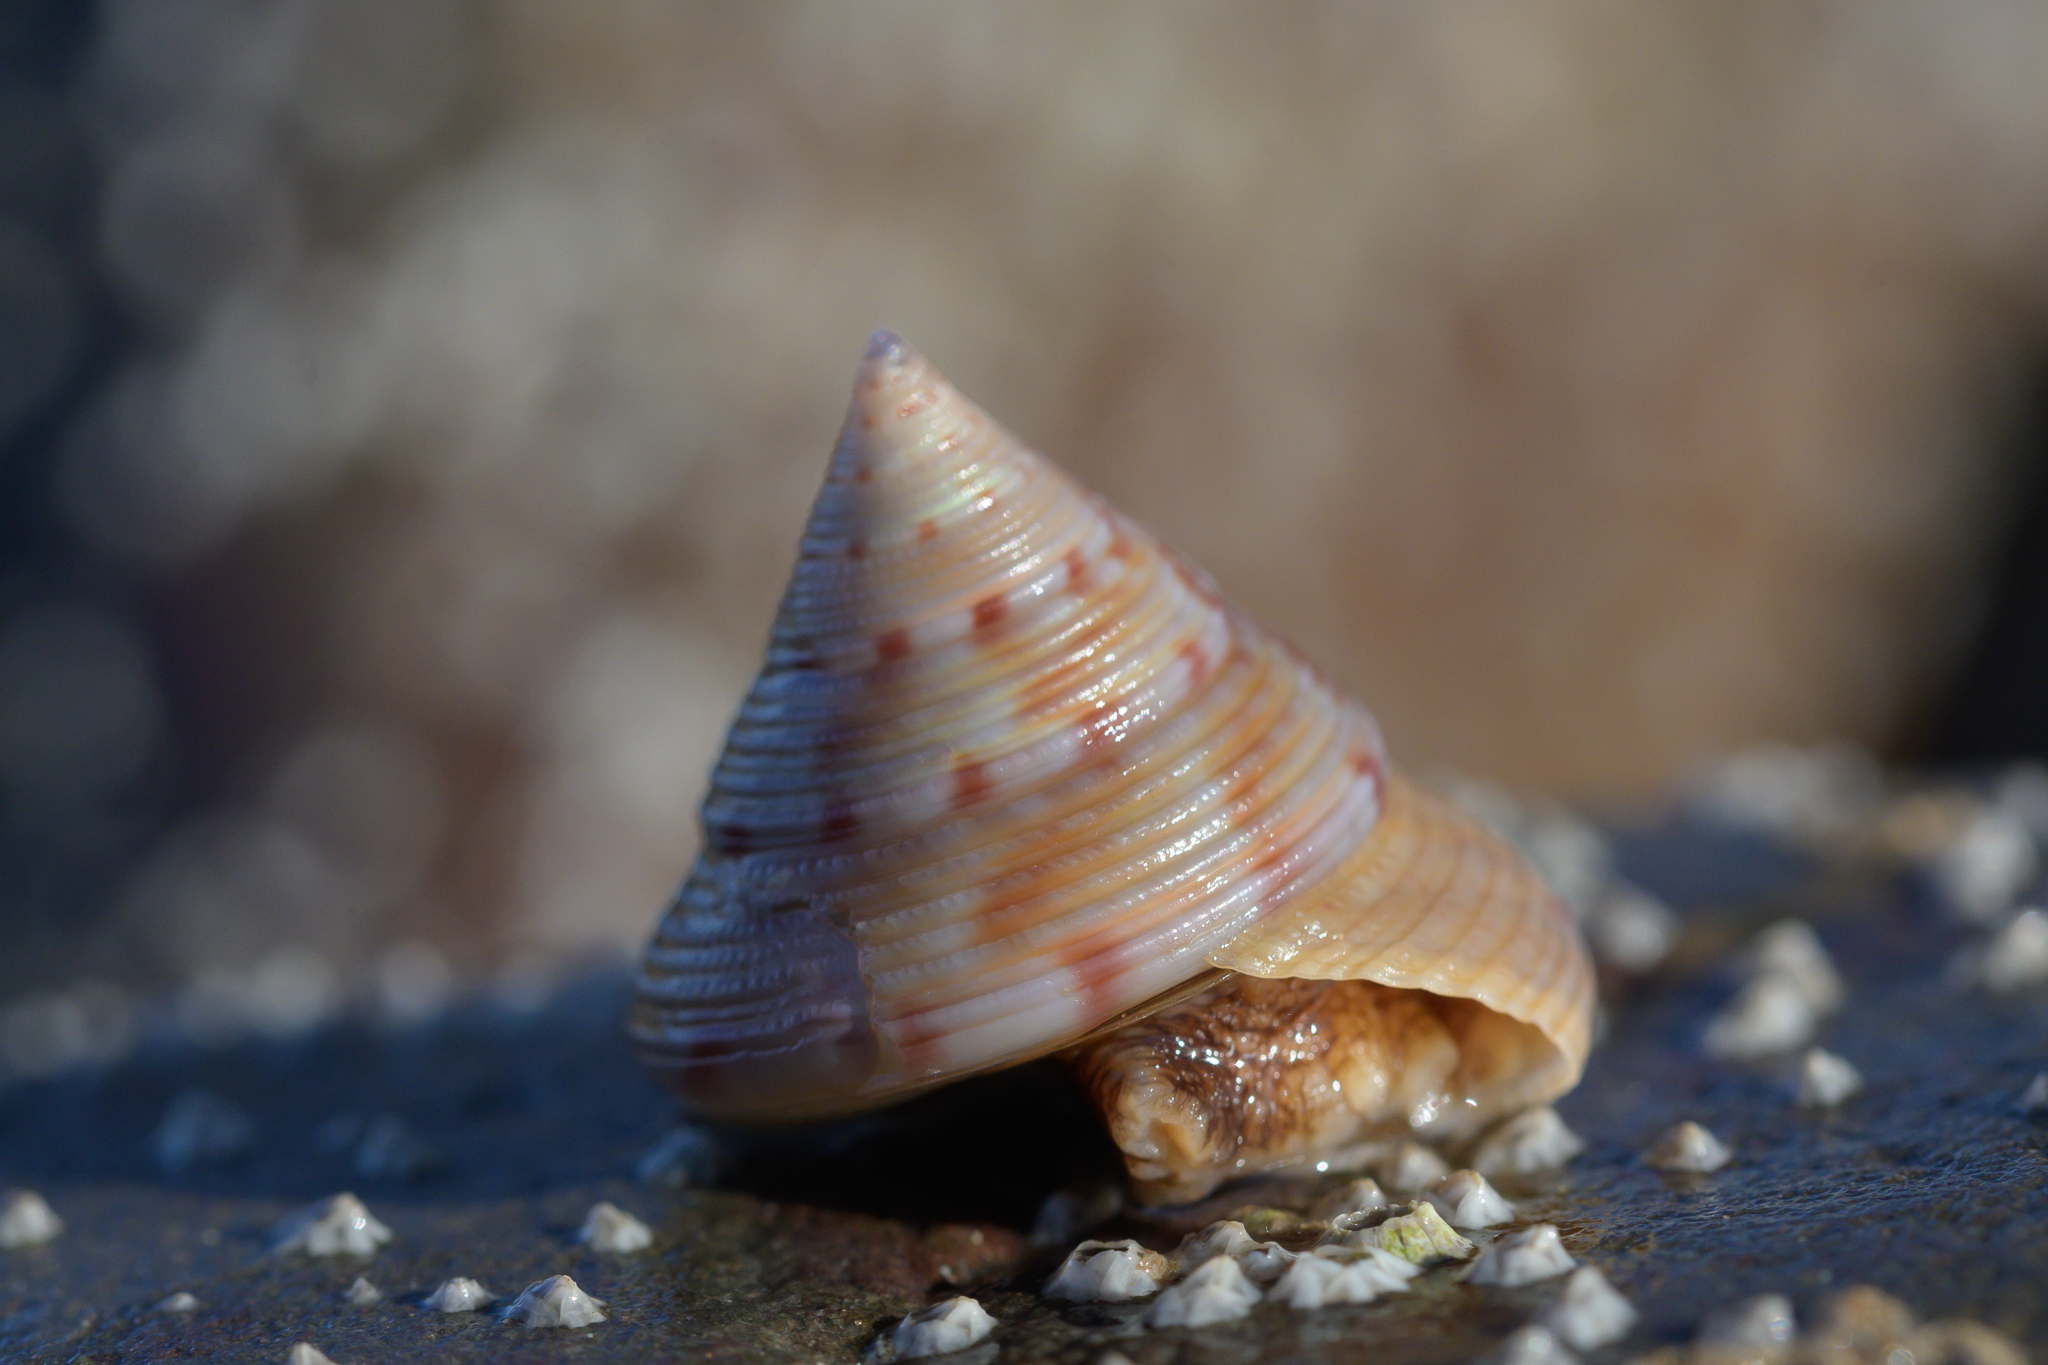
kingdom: Animalia
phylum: Mollusca
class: Gastropoda
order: Trochida
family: Calliostomatidae
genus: Calliostoma
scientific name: Calliostoma zizyphinum
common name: Painted top shell
